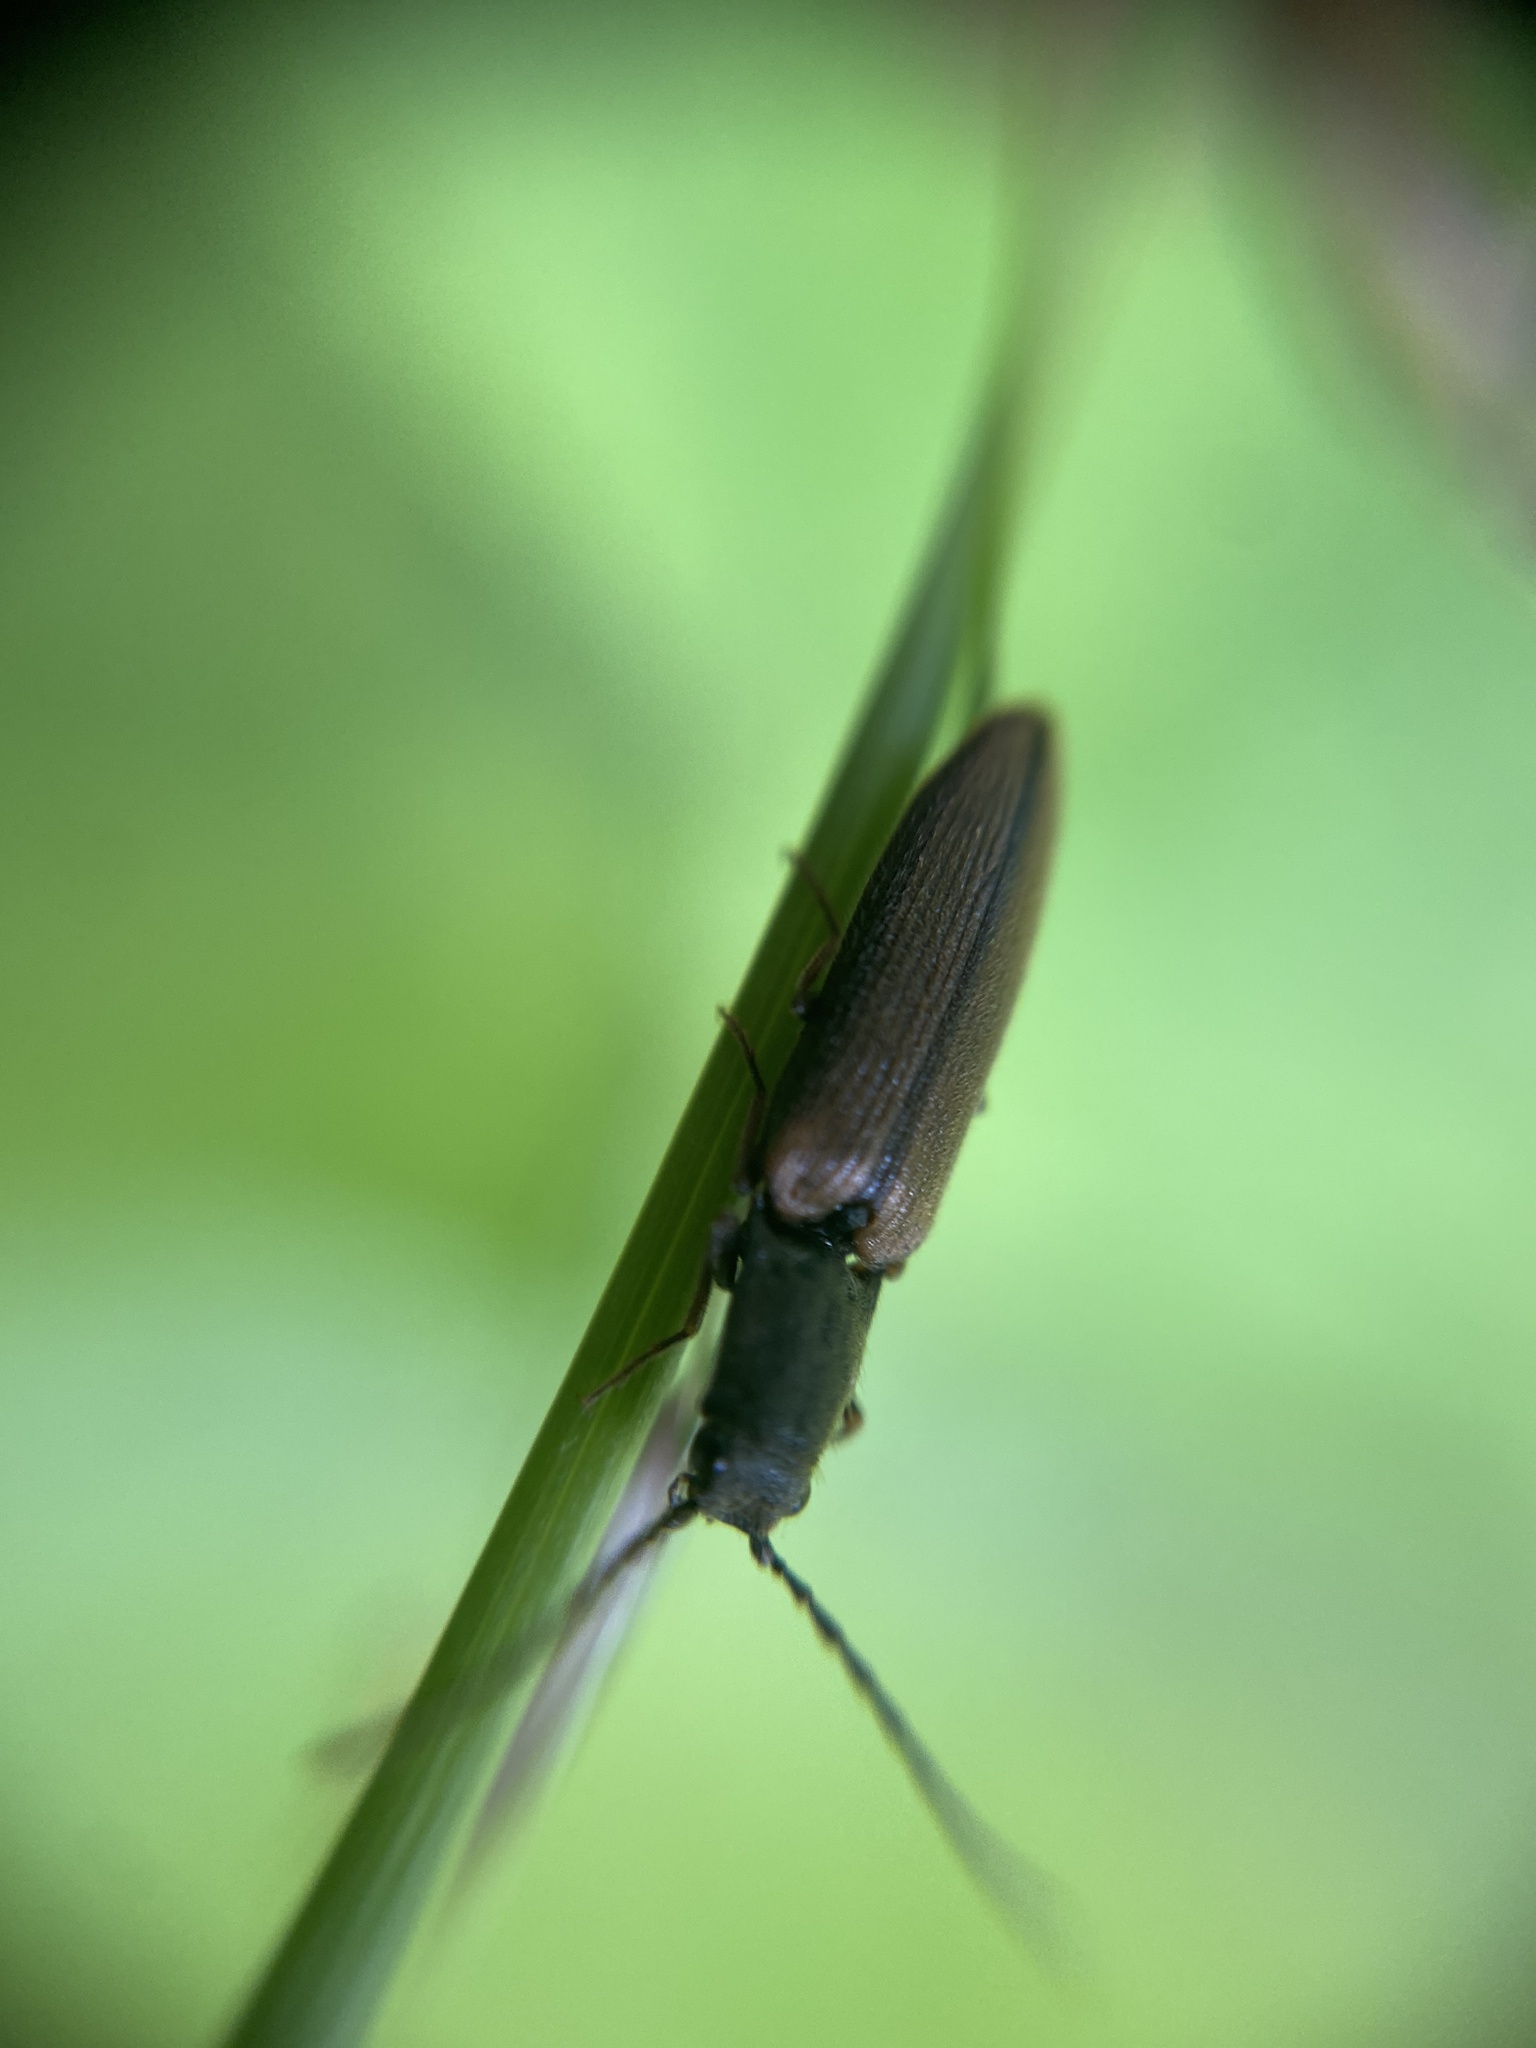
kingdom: Animalia
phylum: Arthropoda
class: Insecta
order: Coleoptera
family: Elateridae
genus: Athous
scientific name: Athous bicolor
